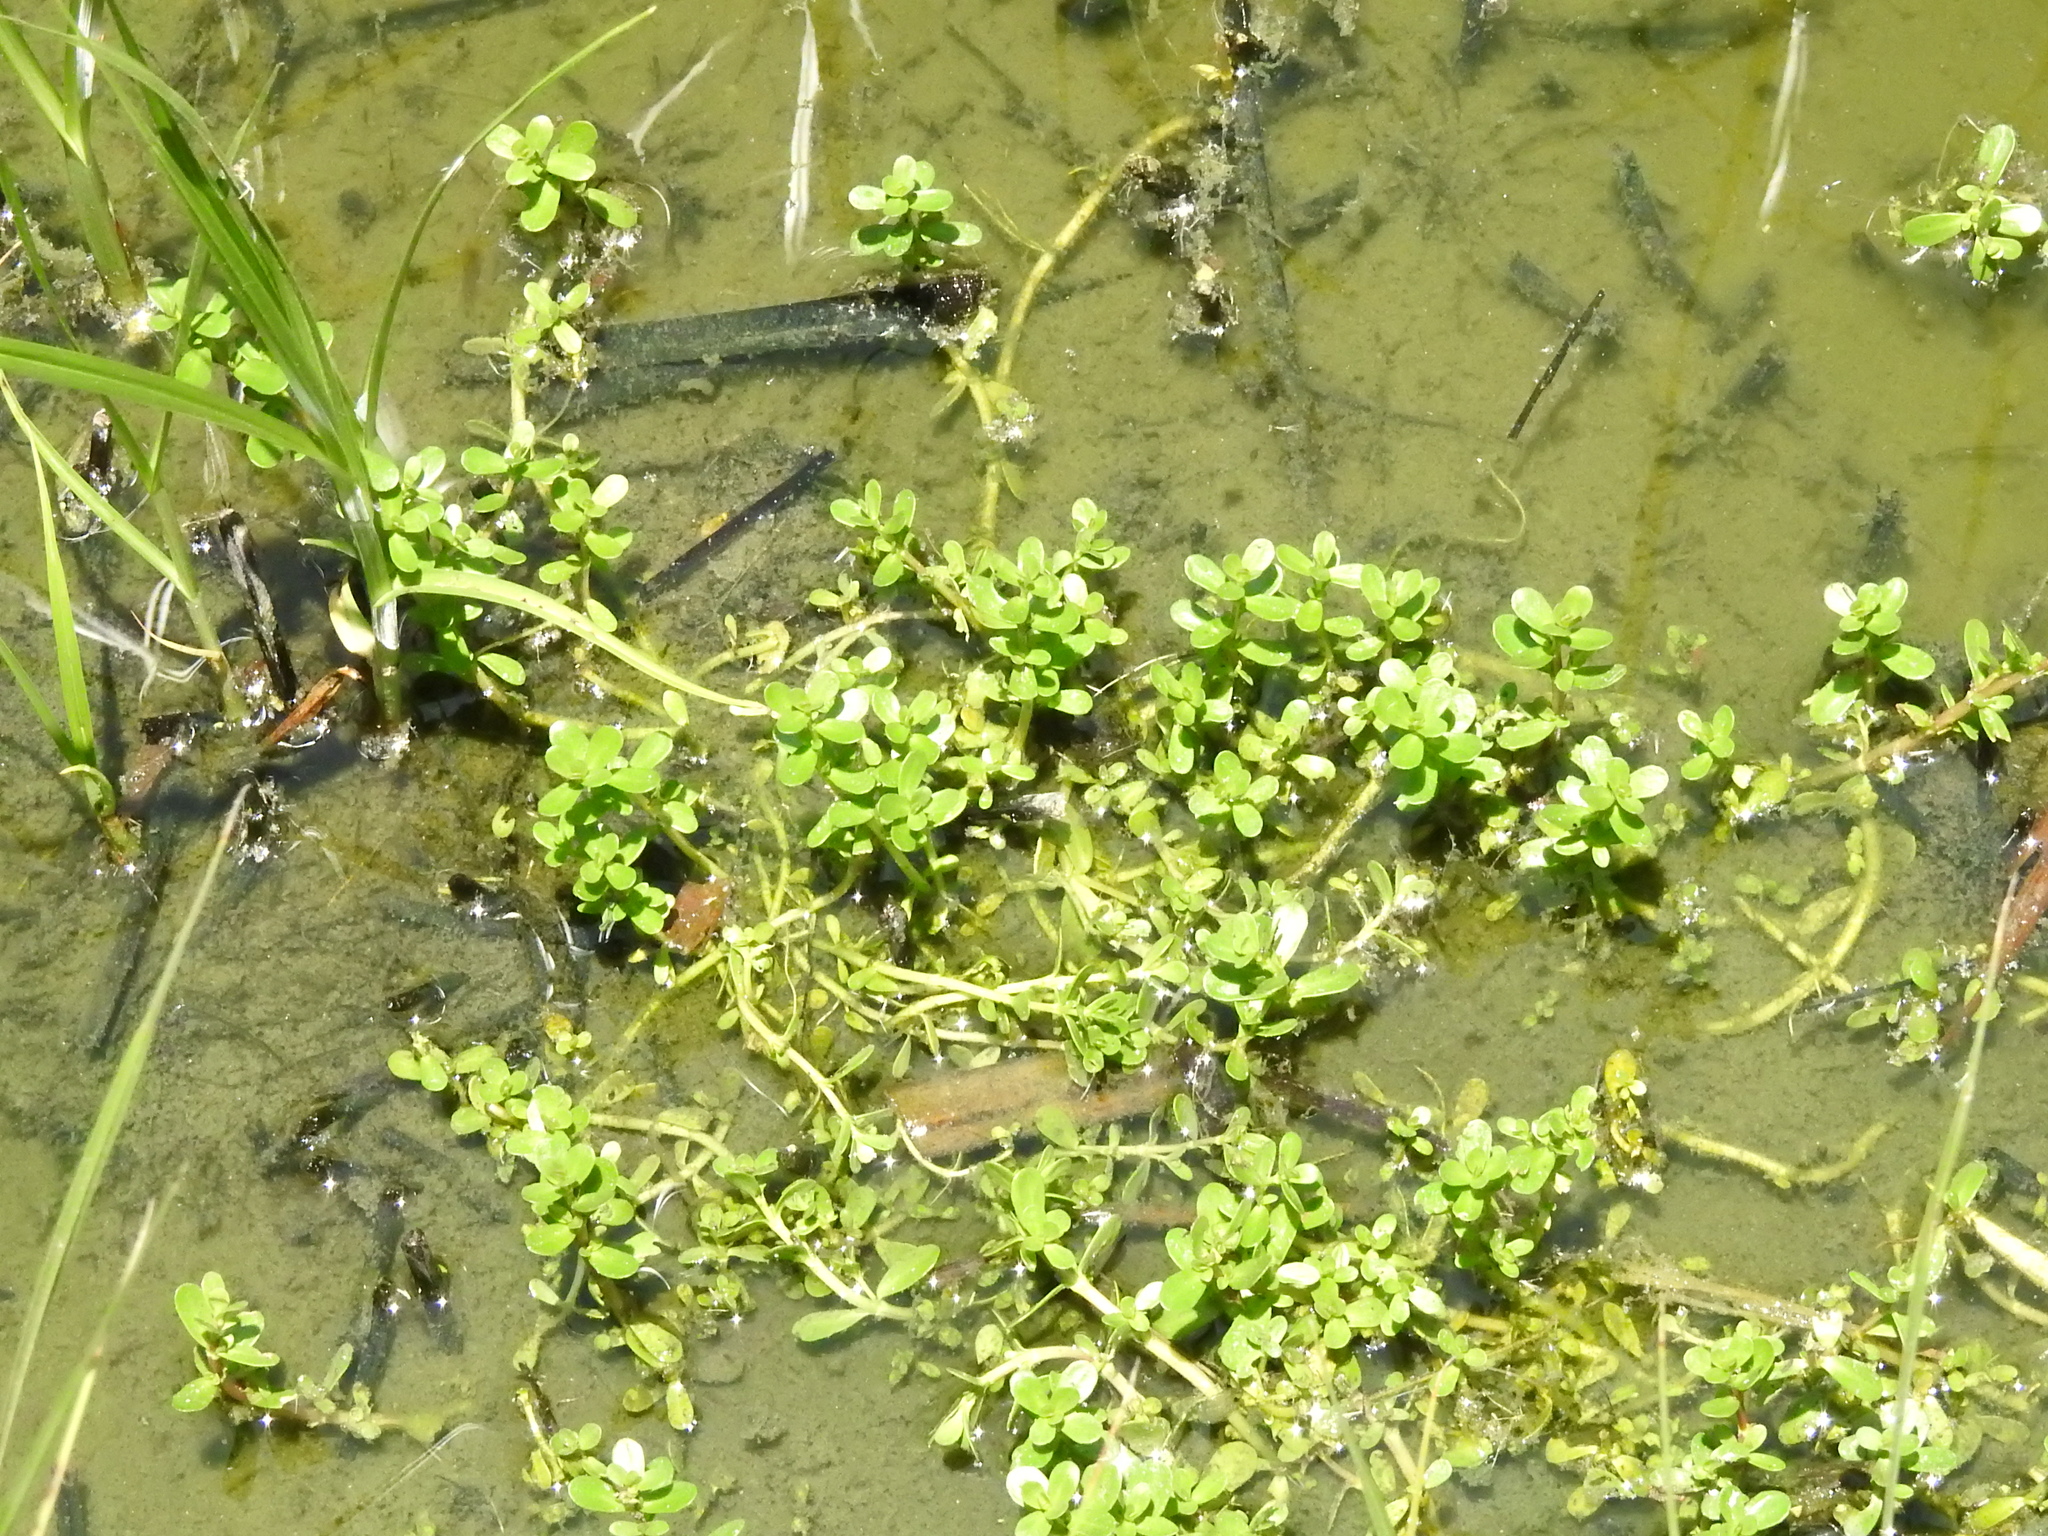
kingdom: Plantae
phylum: Tracheophyta
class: Magnoliopsida
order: Lamiales
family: Plantaginaceae
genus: Bacopa
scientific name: Bacopa monnieri
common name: Indian-pennywort
